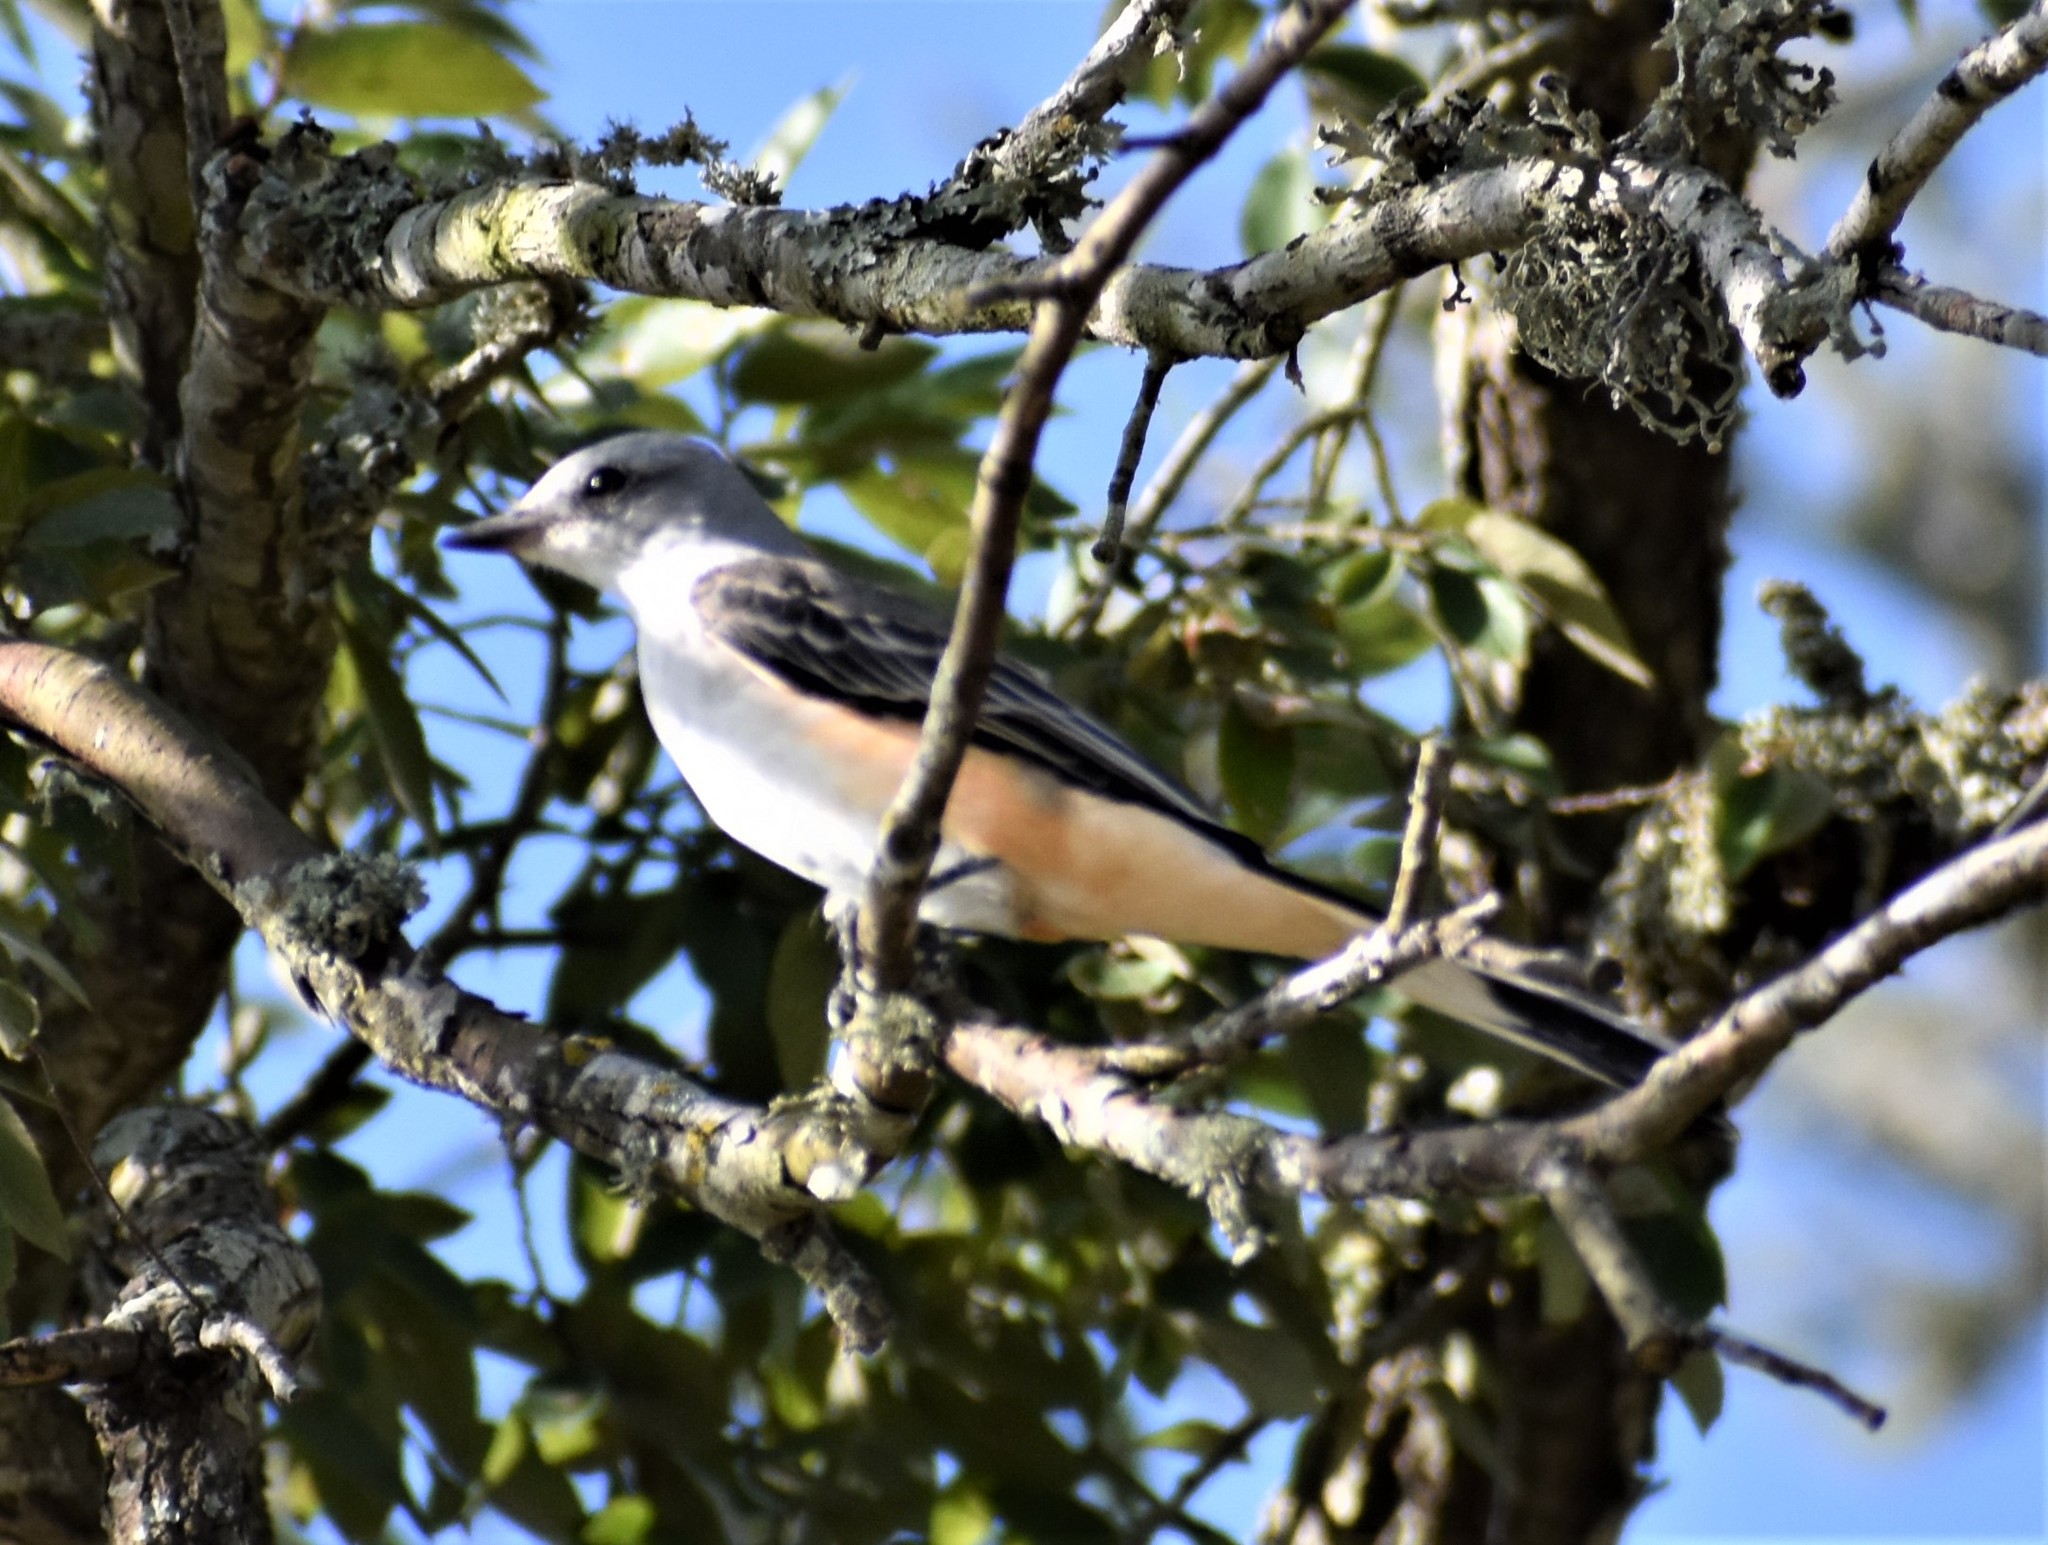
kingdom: Animalia
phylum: Chordata
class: Aves
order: Passeriformes
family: Tyrannidae
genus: Tyrannus
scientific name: Tyrannus forficatus
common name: Scissor-tailed flycatcher
